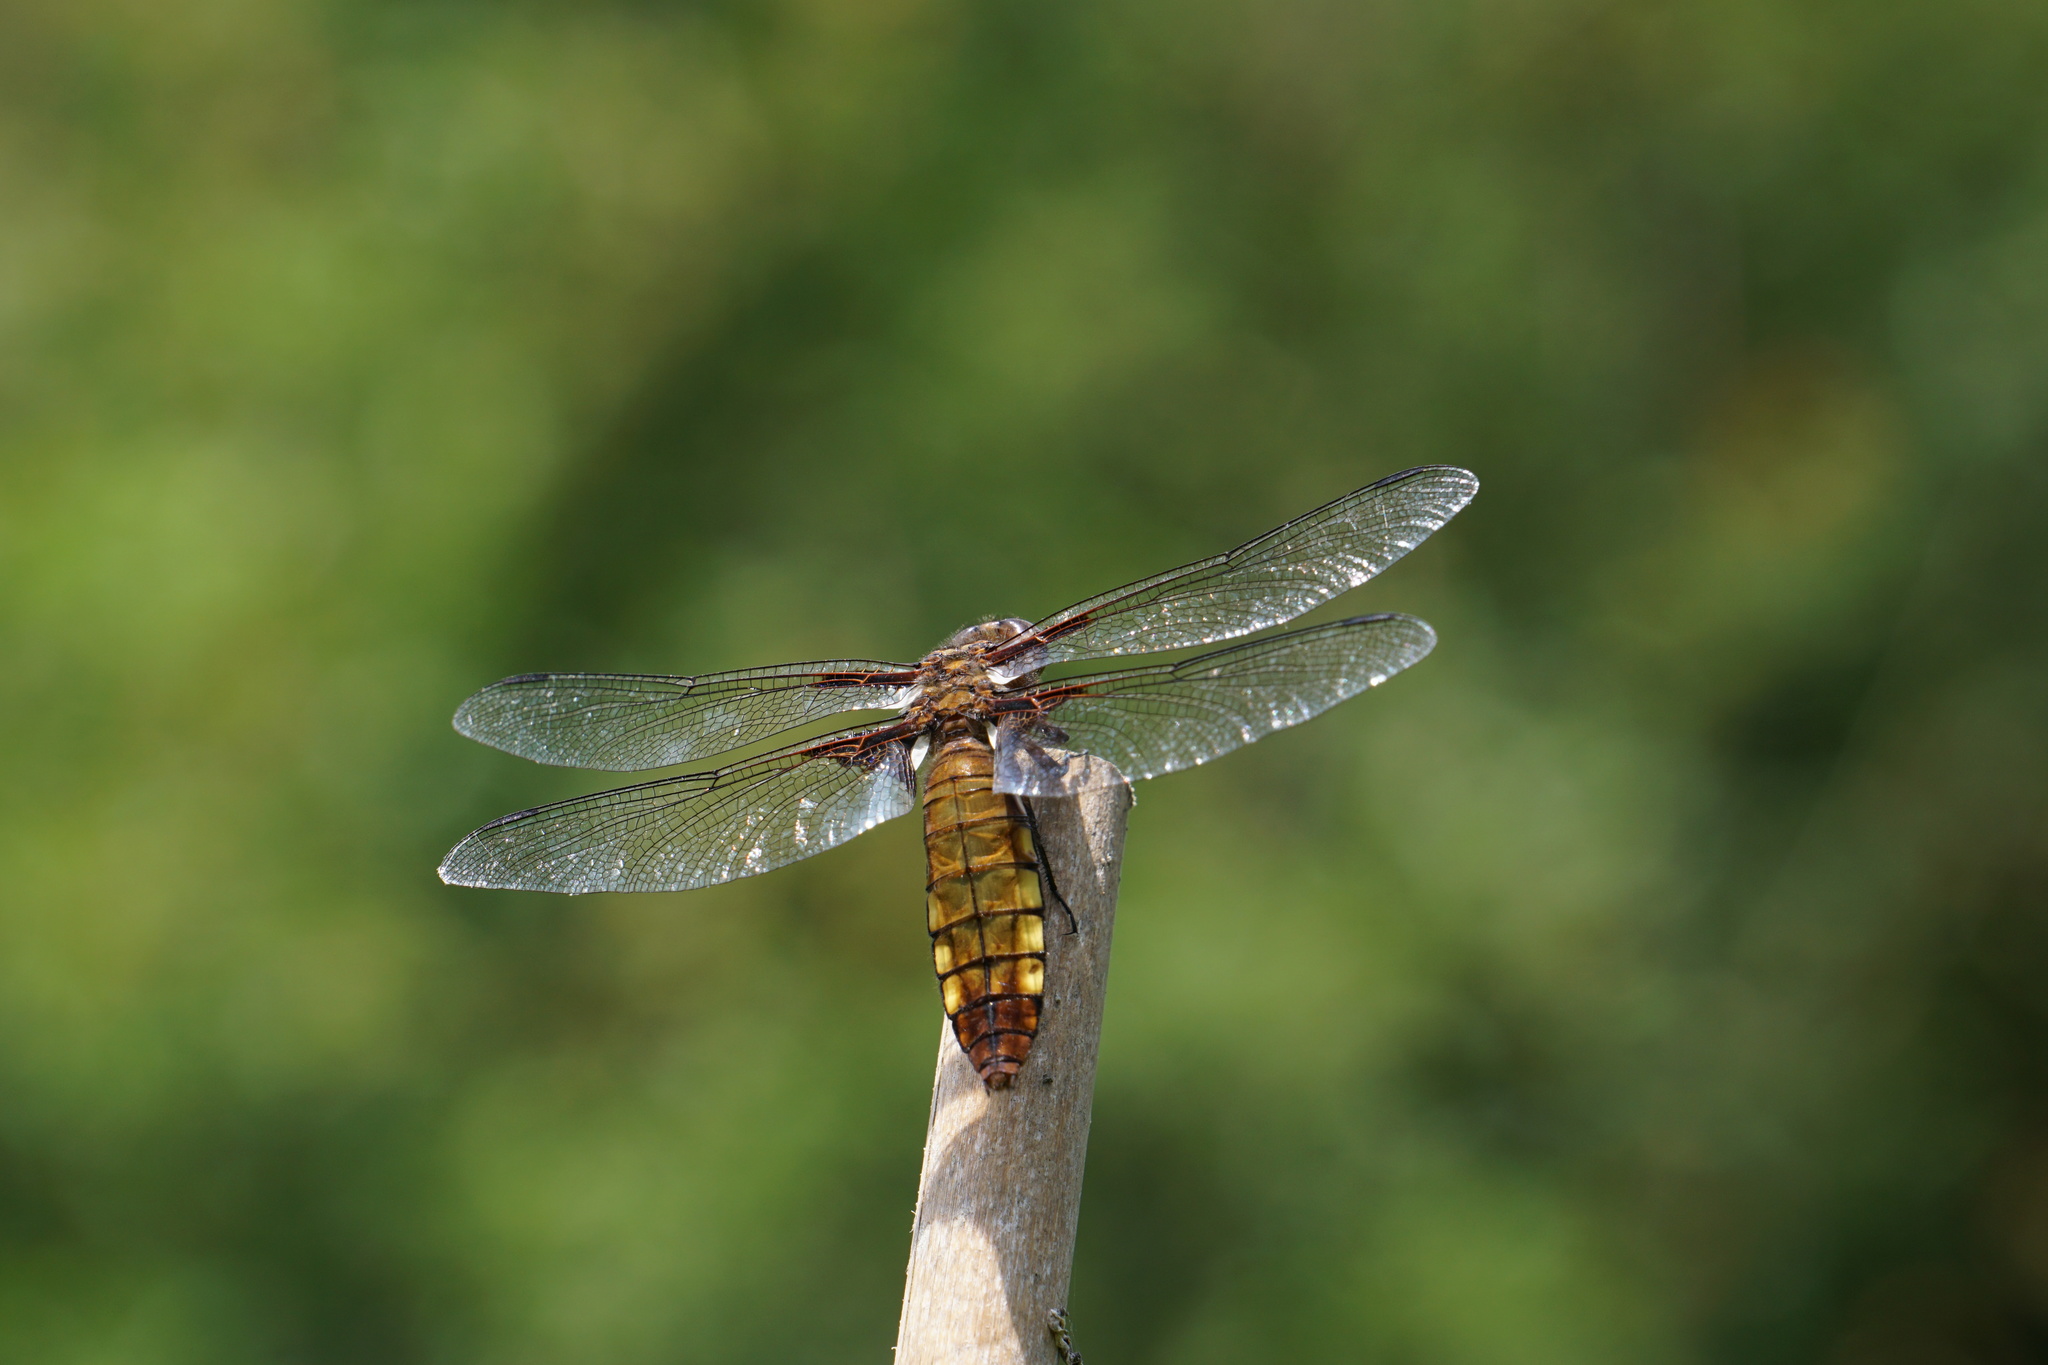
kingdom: Animalia
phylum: Arthropoda
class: Insecta
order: Odonata
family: Libellulidae
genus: Libellula
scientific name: Libellula depressa
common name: Broad-bodied chaser
